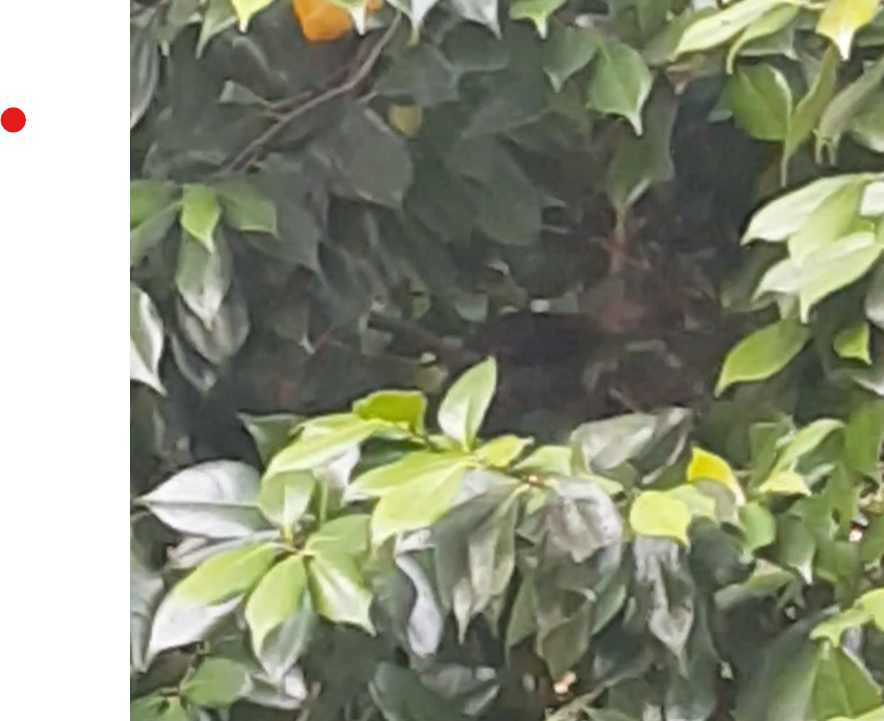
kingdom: Animalia
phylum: Chordata
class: Aves
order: Galliformes
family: Megapodiidae
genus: Alectura
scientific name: Alectura lathami
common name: Australian brushturkey
